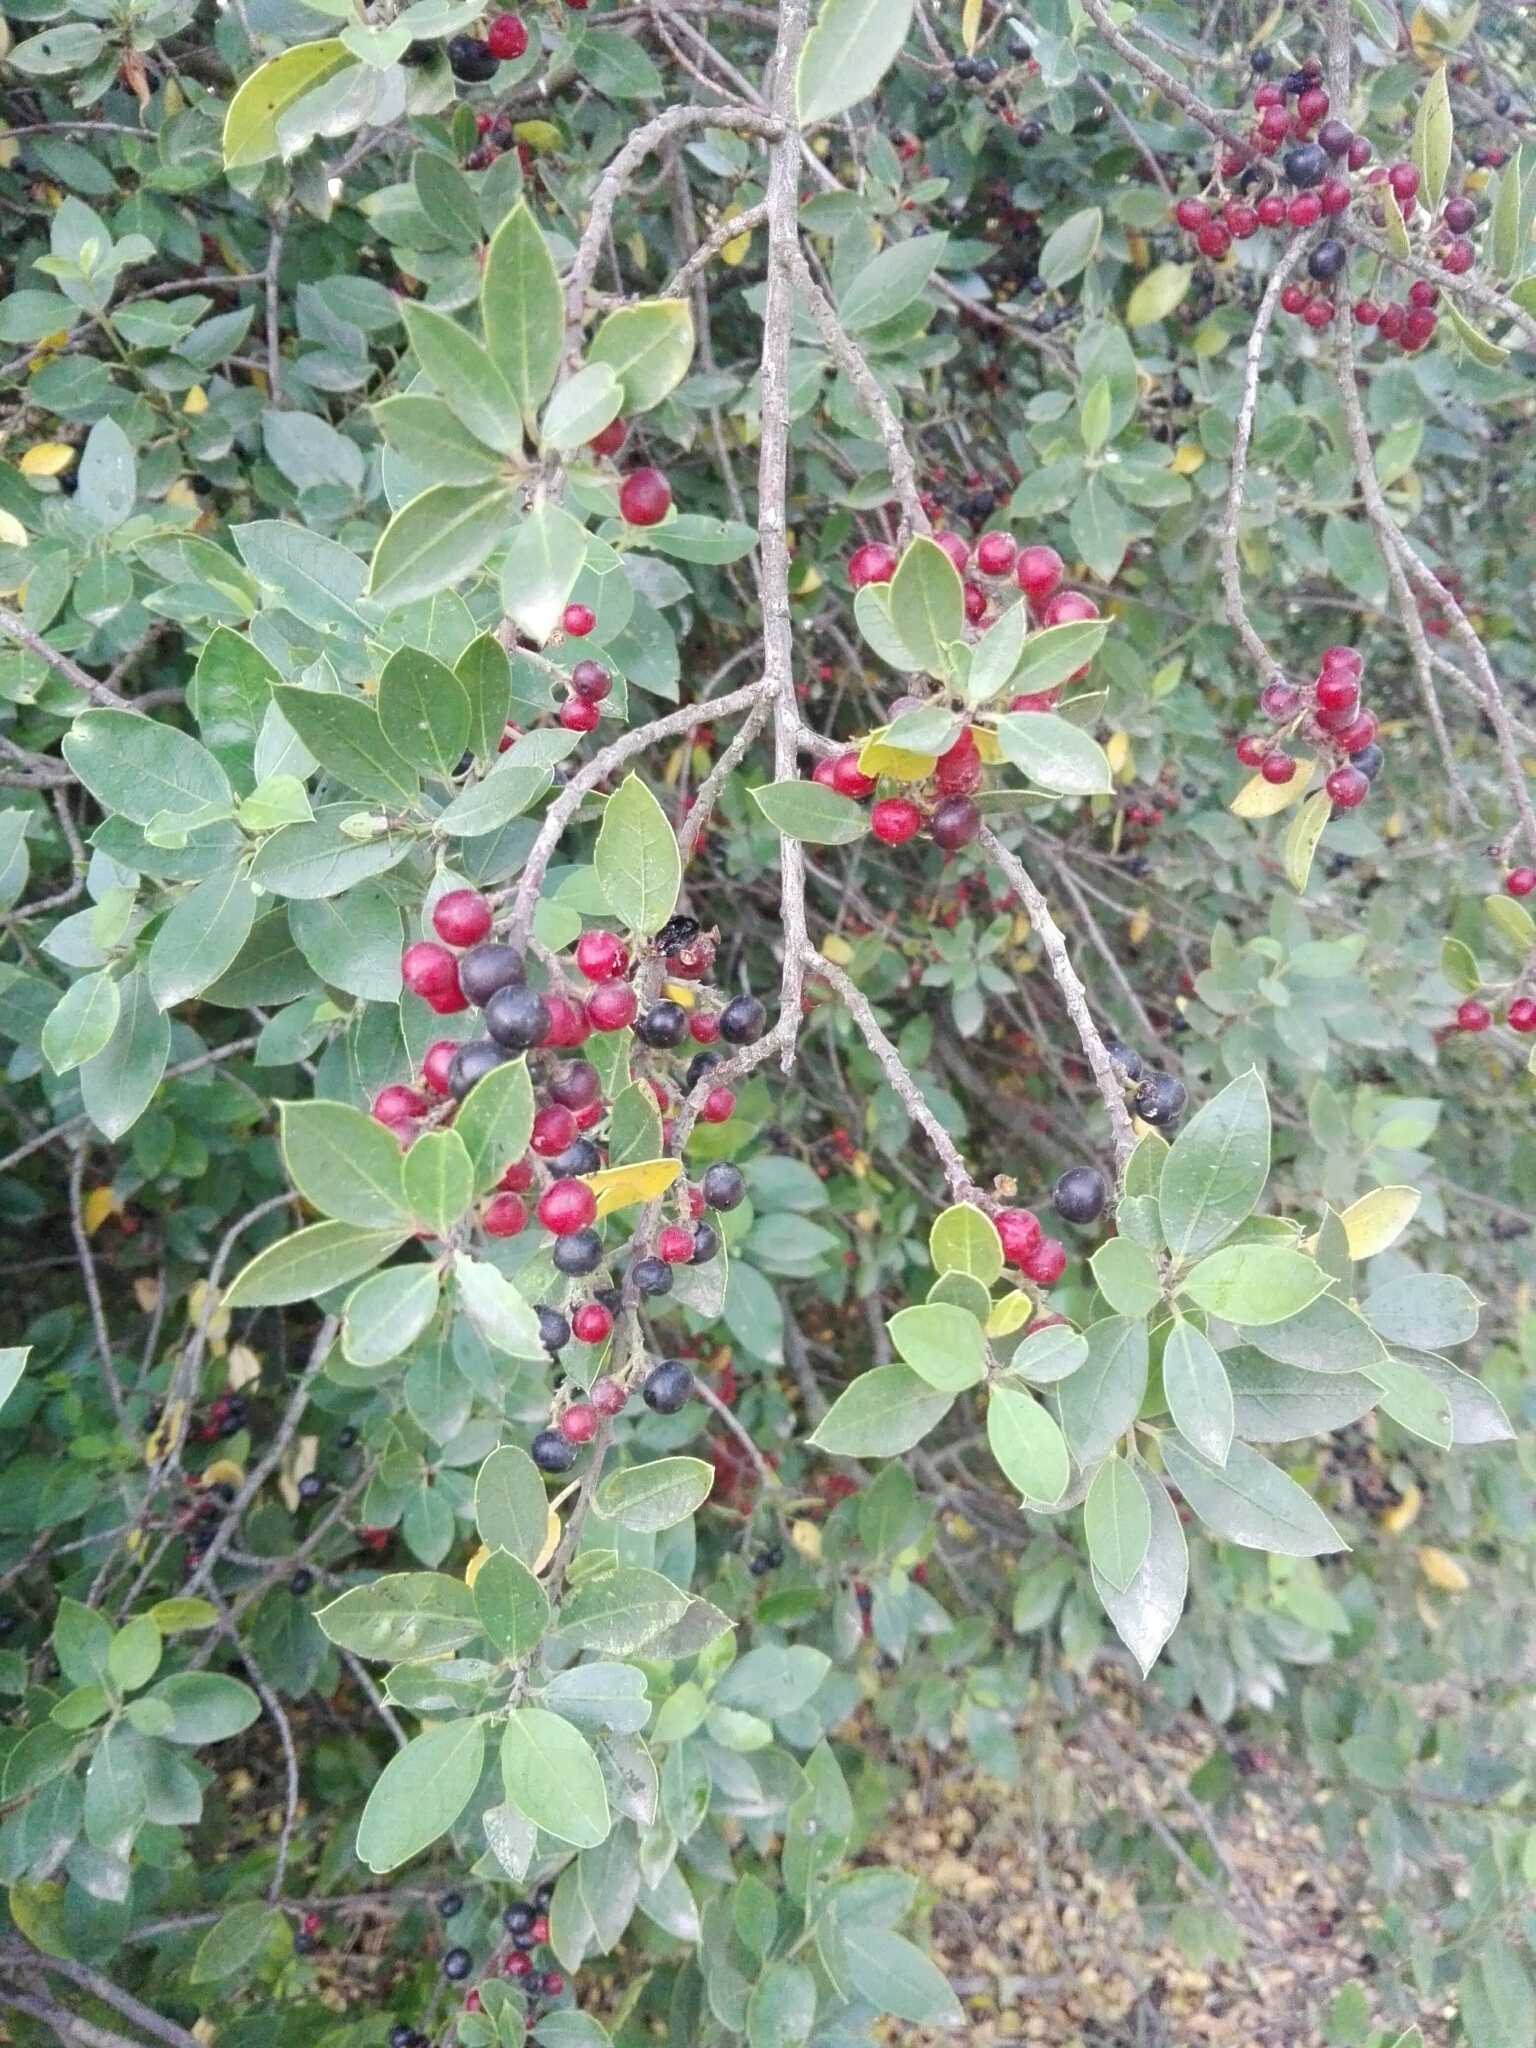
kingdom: Plantae
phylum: Tracheophyta
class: Magnoliopsida
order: Rosales
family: Rhamnaceae
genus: Rhamnus
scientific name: Rhamnus alaternus
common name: Mediterranean buckthorn
